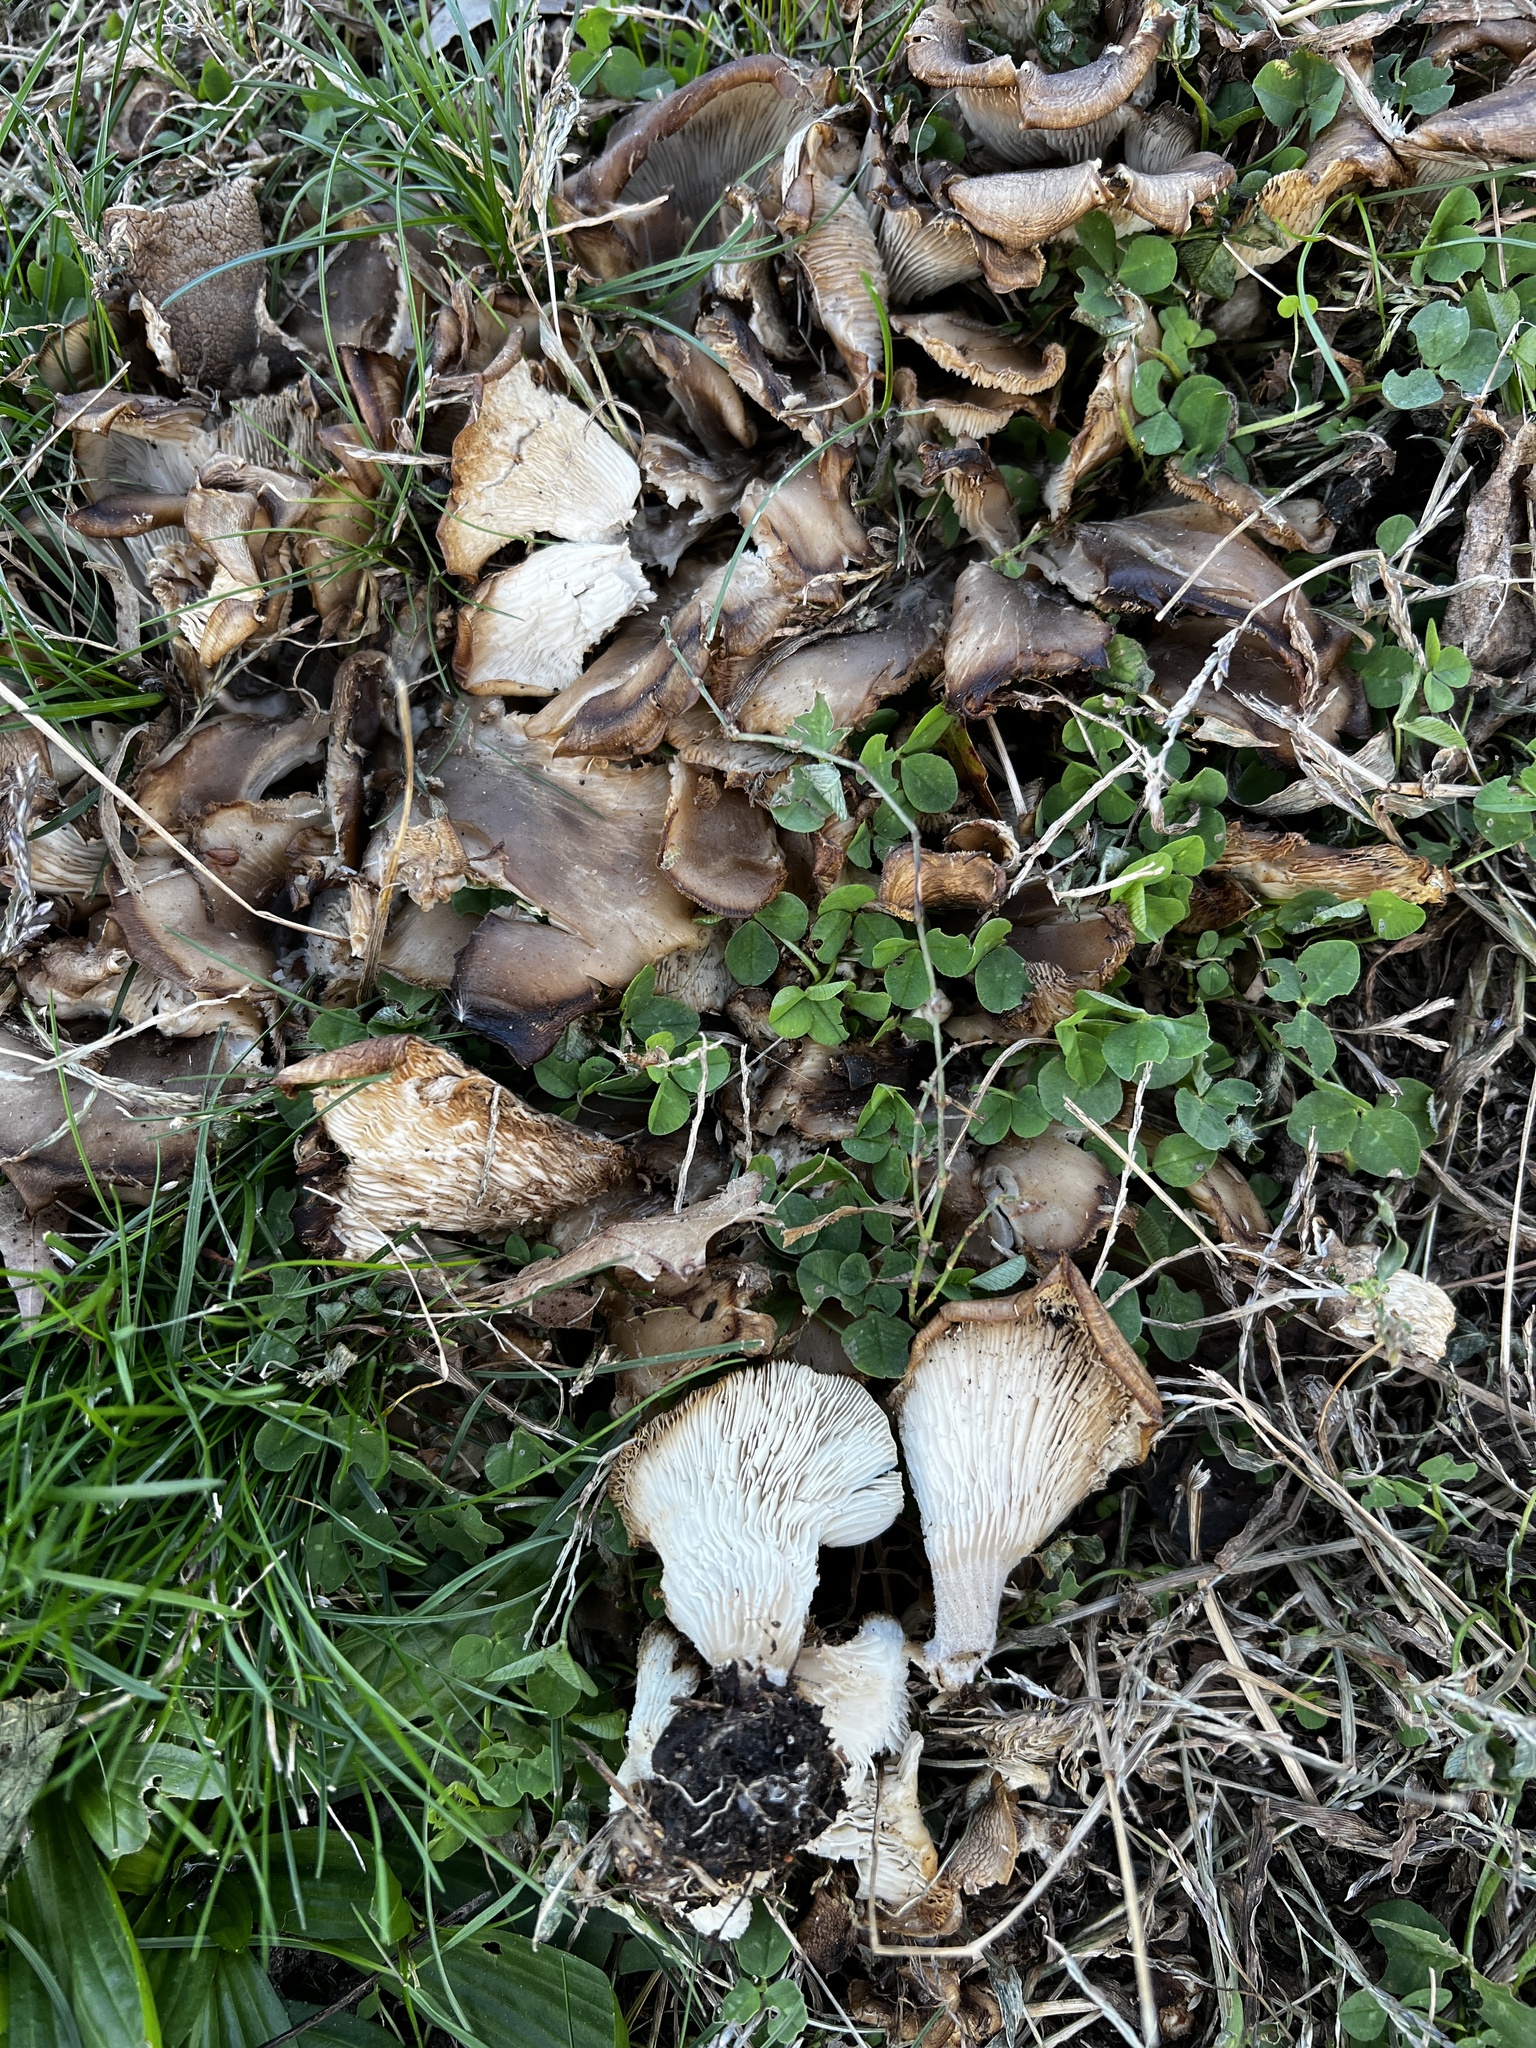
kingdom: Fungi
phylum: Basidiomycota
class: Agaricomycetes
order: Agaricales
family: Pleurotaceae
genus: Hohenbuehelia
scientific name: Hohenbuehelia petaloides
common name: Shoehorn oyster
